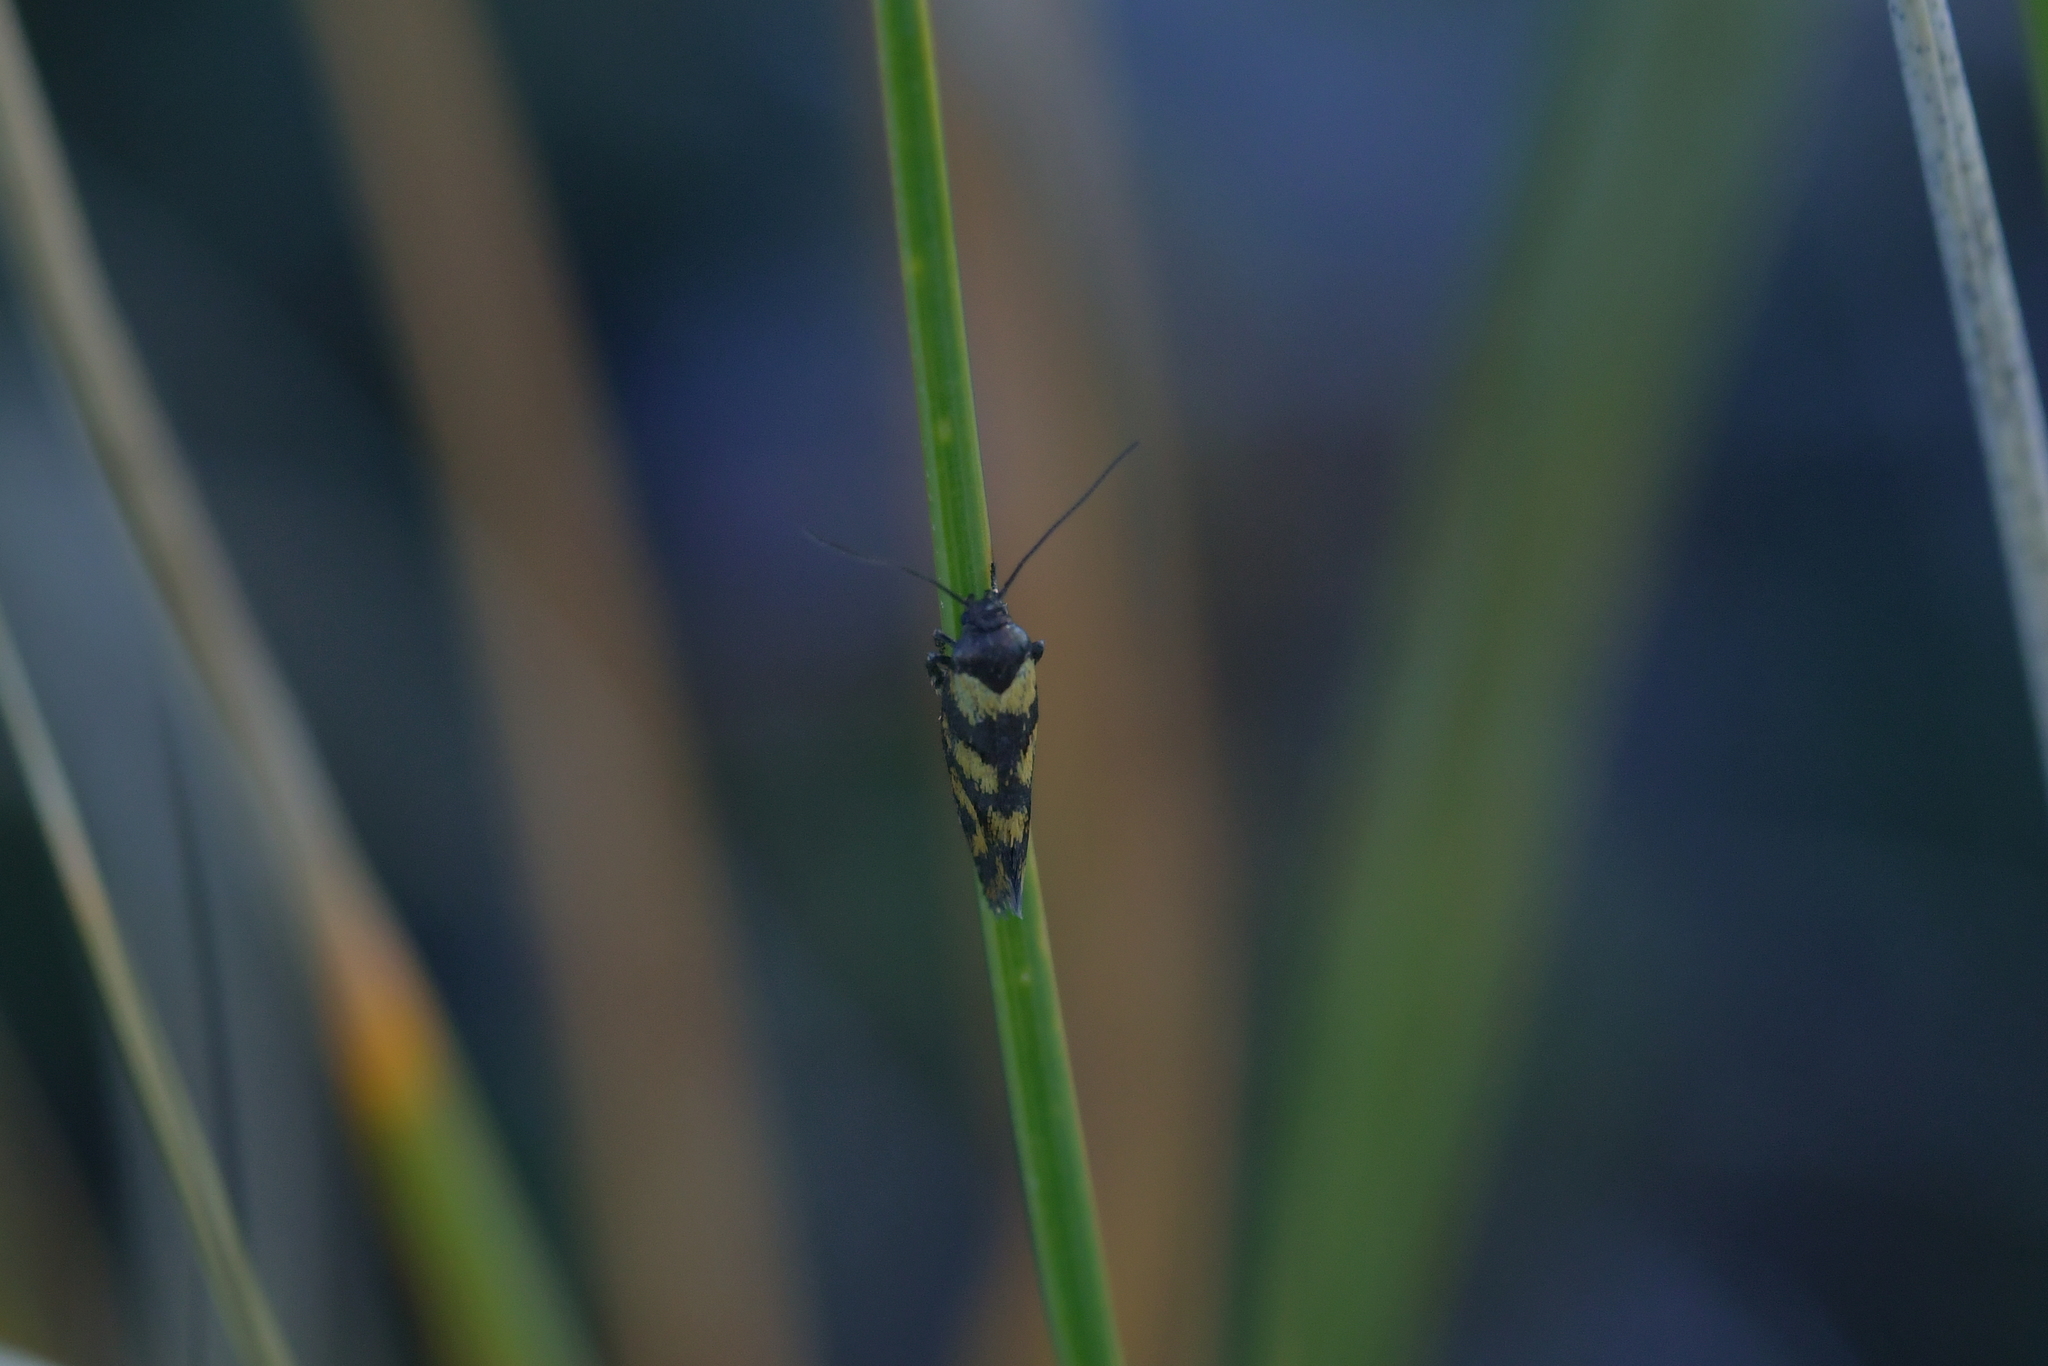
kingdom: Animalia
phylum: Arthropoda
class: Insecta
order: Lepidoptera
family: Oecophoridae
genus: Tingena
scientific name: Tingena compsogramma
